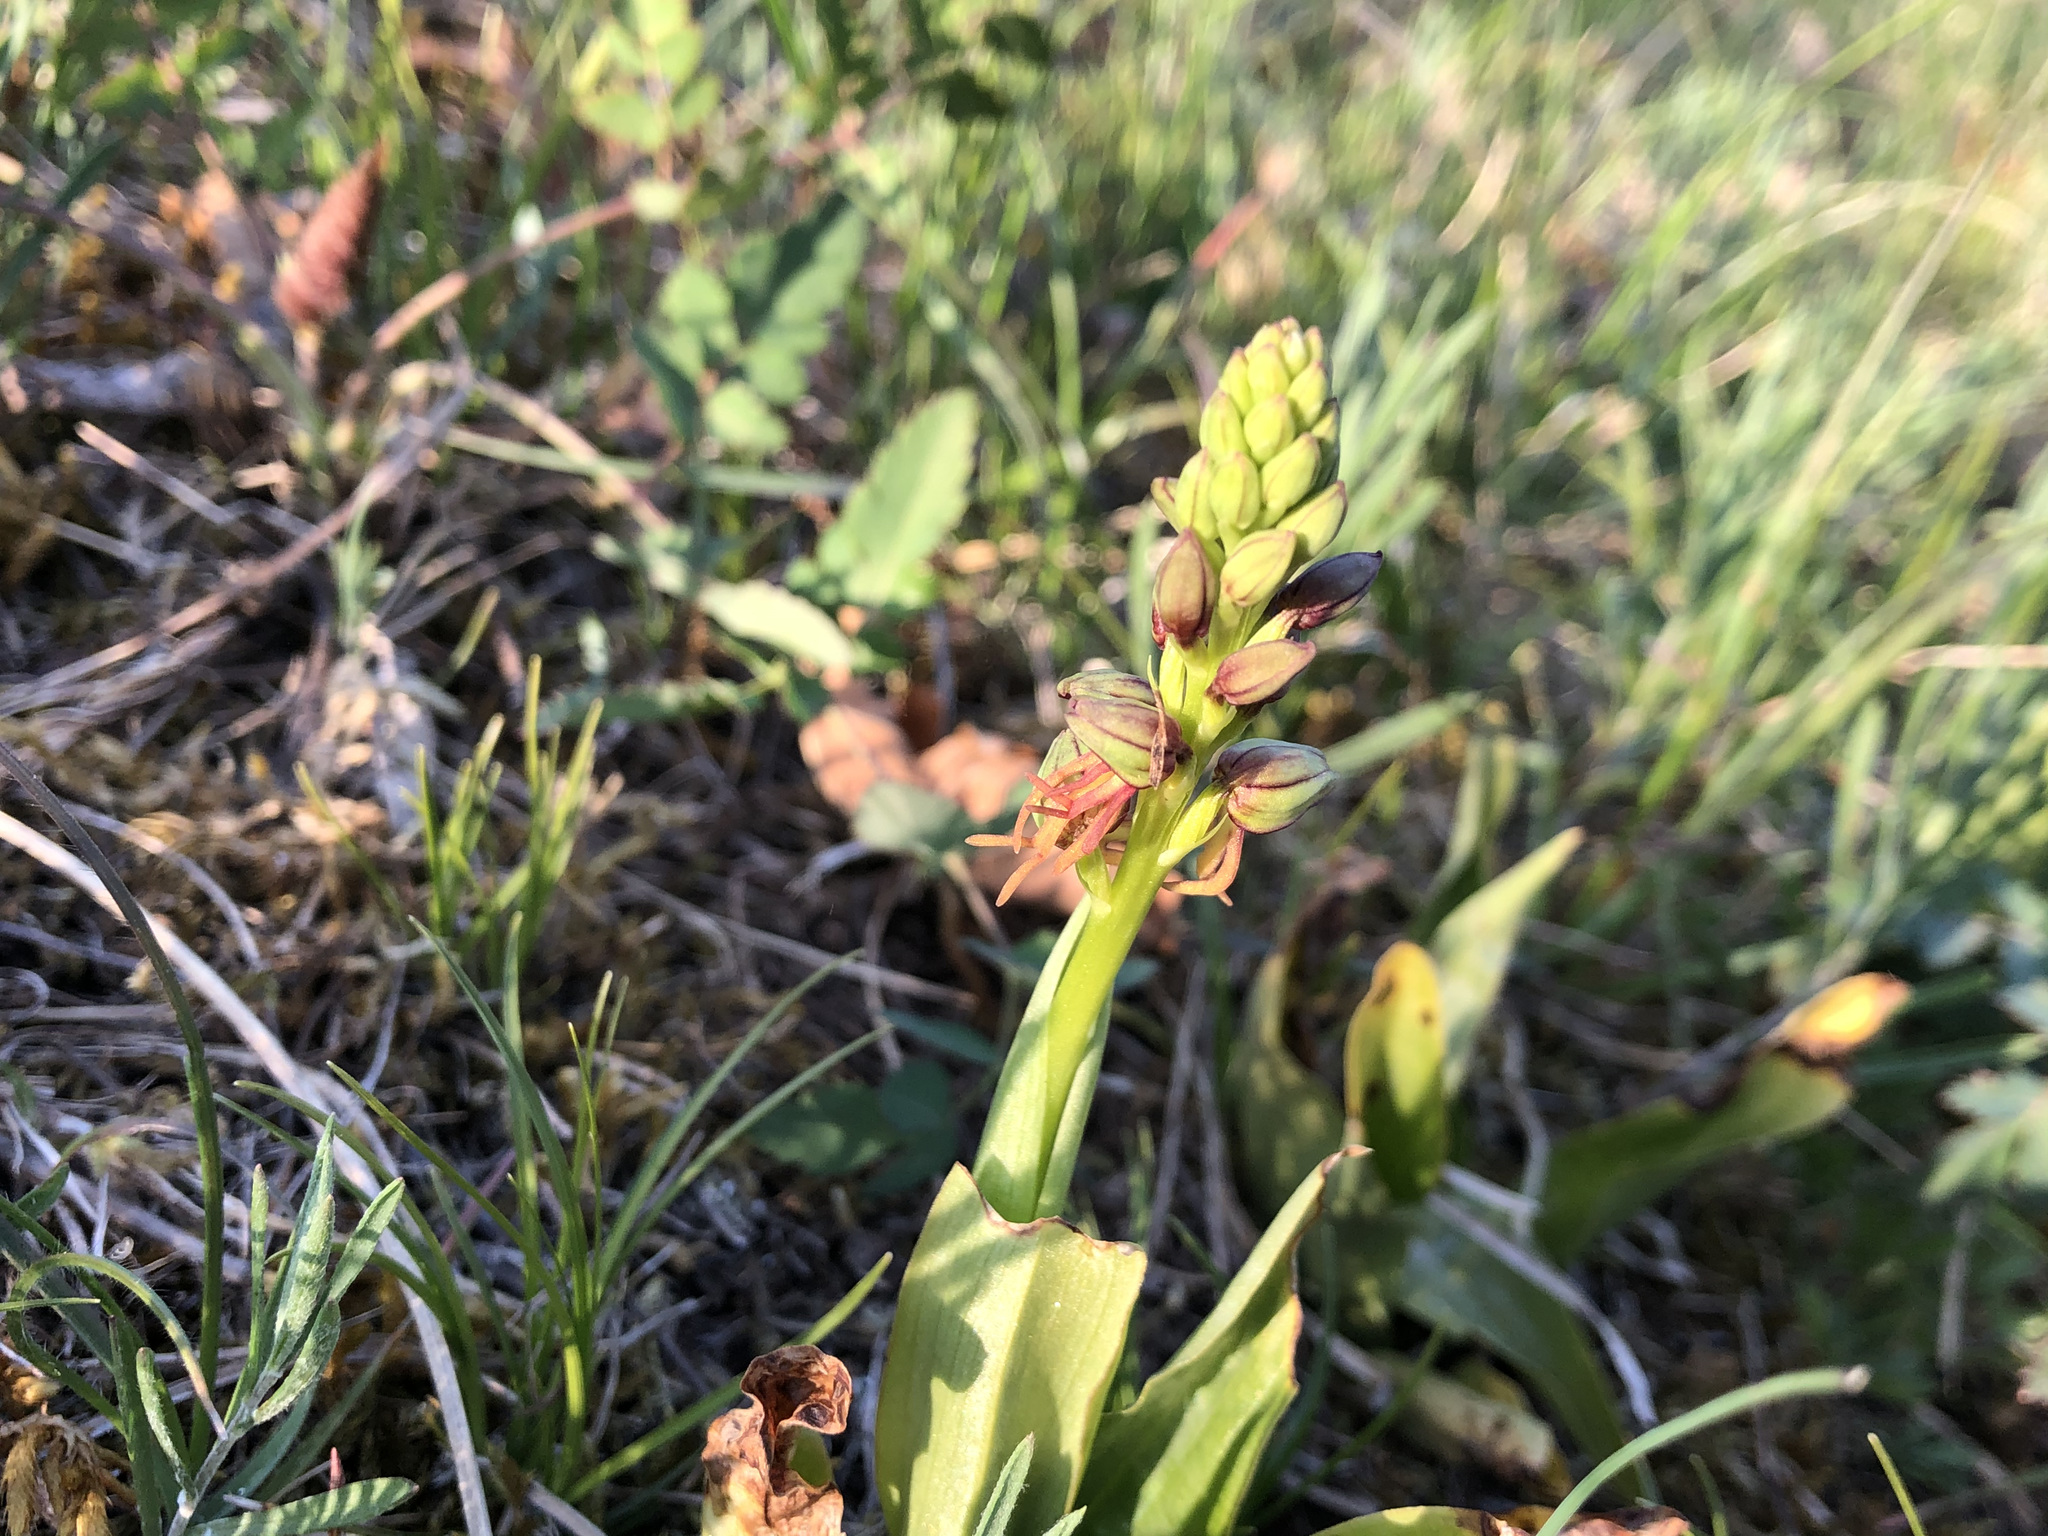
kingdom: Plantae
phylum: Tracheophyta
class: Liliopsida
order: Asparagales
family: Orchidaceae
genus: Orchis
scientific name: Orchis anthropophora
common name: Man orchid
